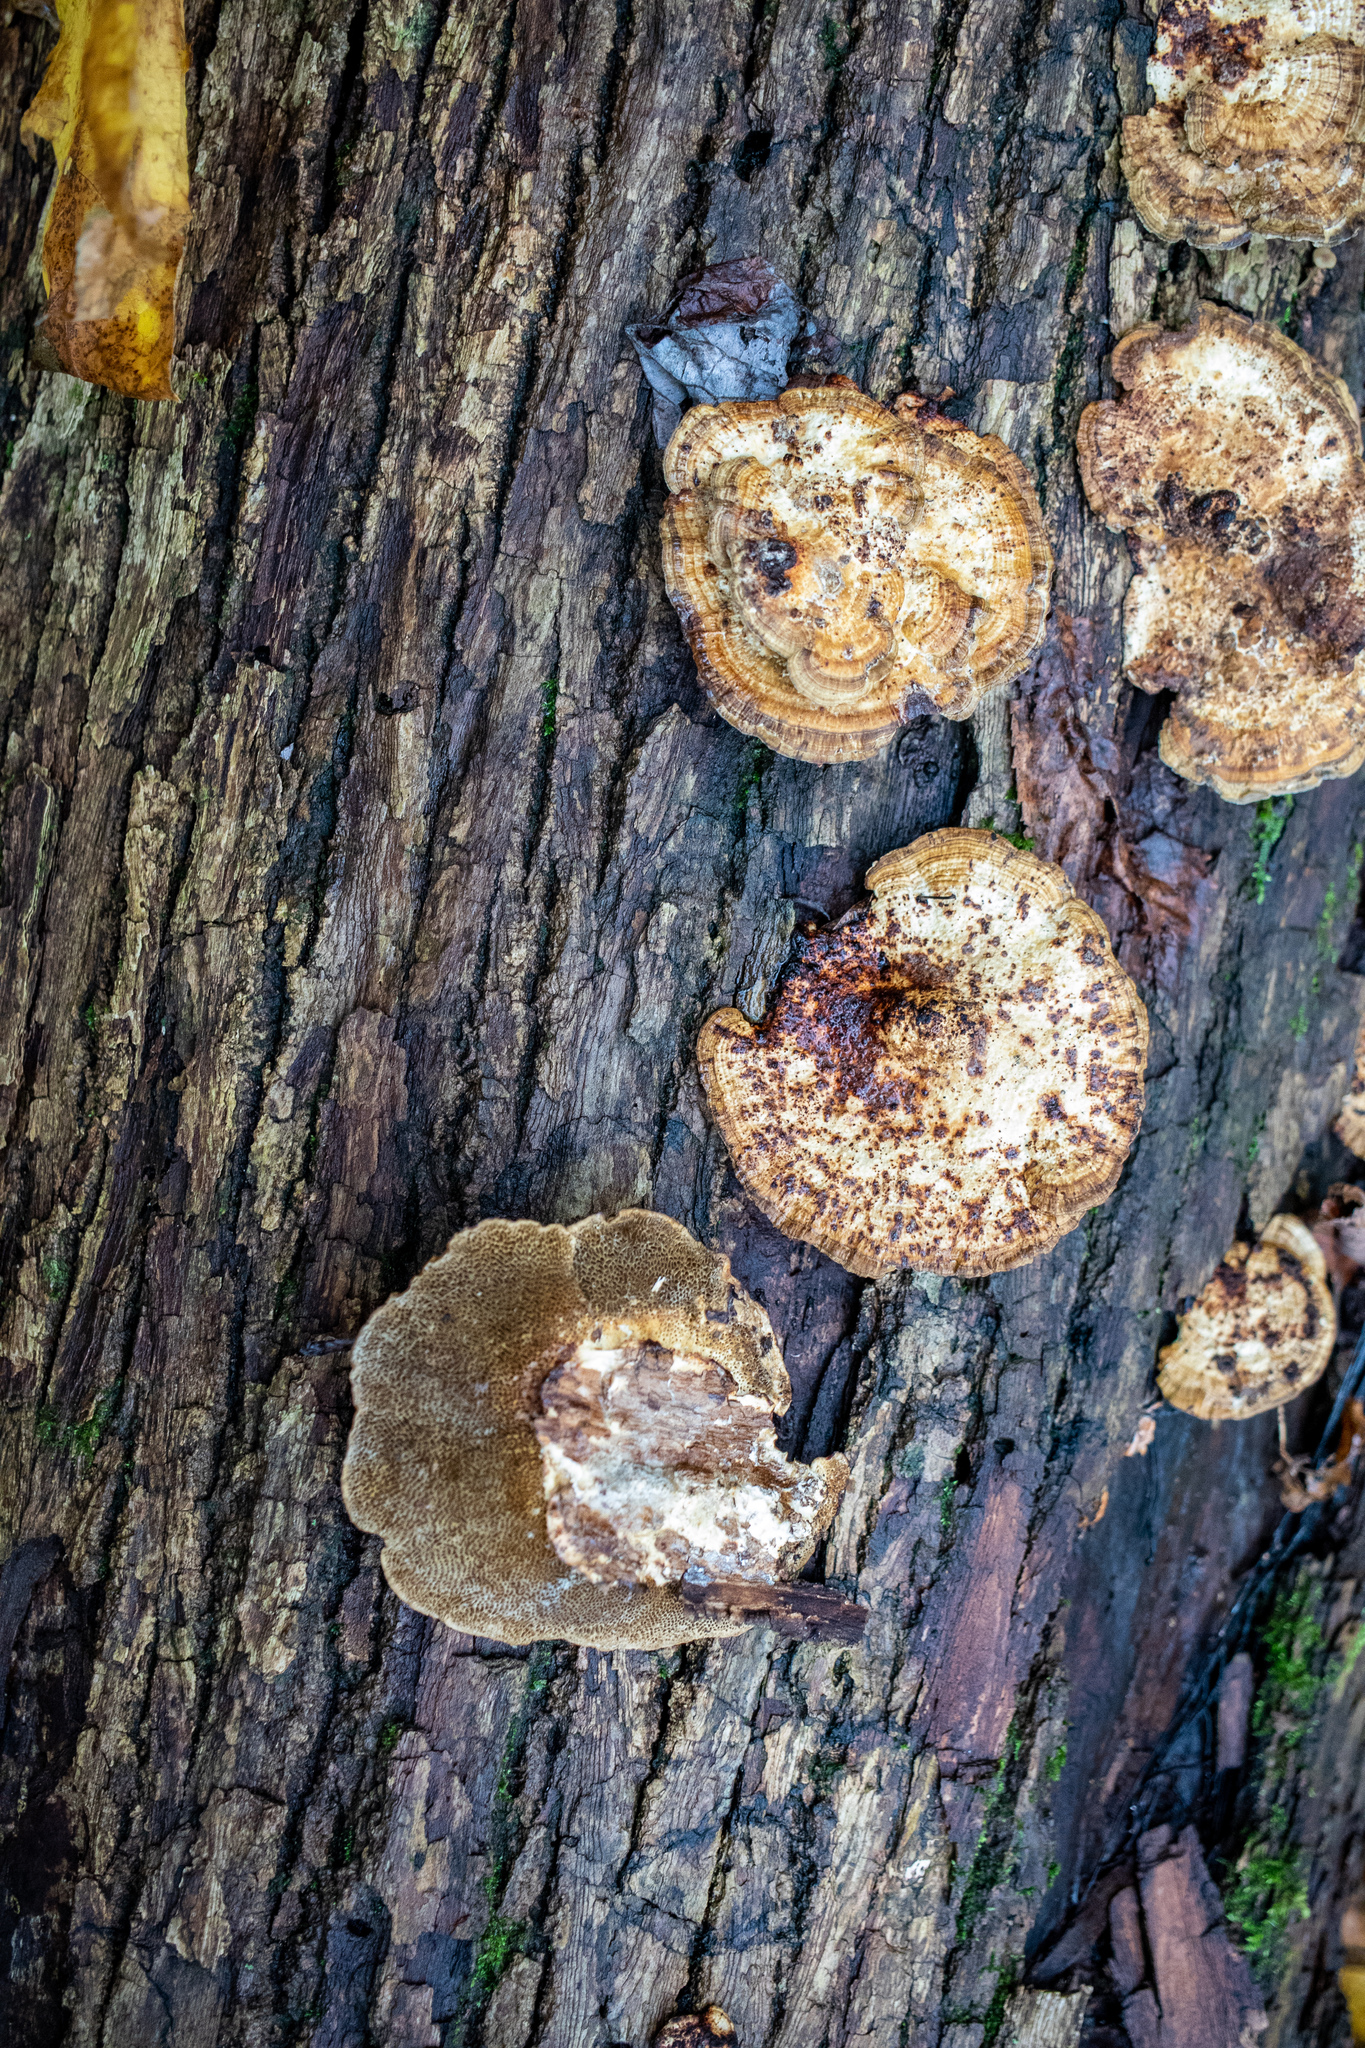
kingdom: Fungi
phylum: Basidiomycota
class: Agaricomycetes
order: Polyporales
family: Polyporaceae
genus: Daedaleopsis
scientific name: Daedaleopsis confragosa
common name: Blushing bracket
